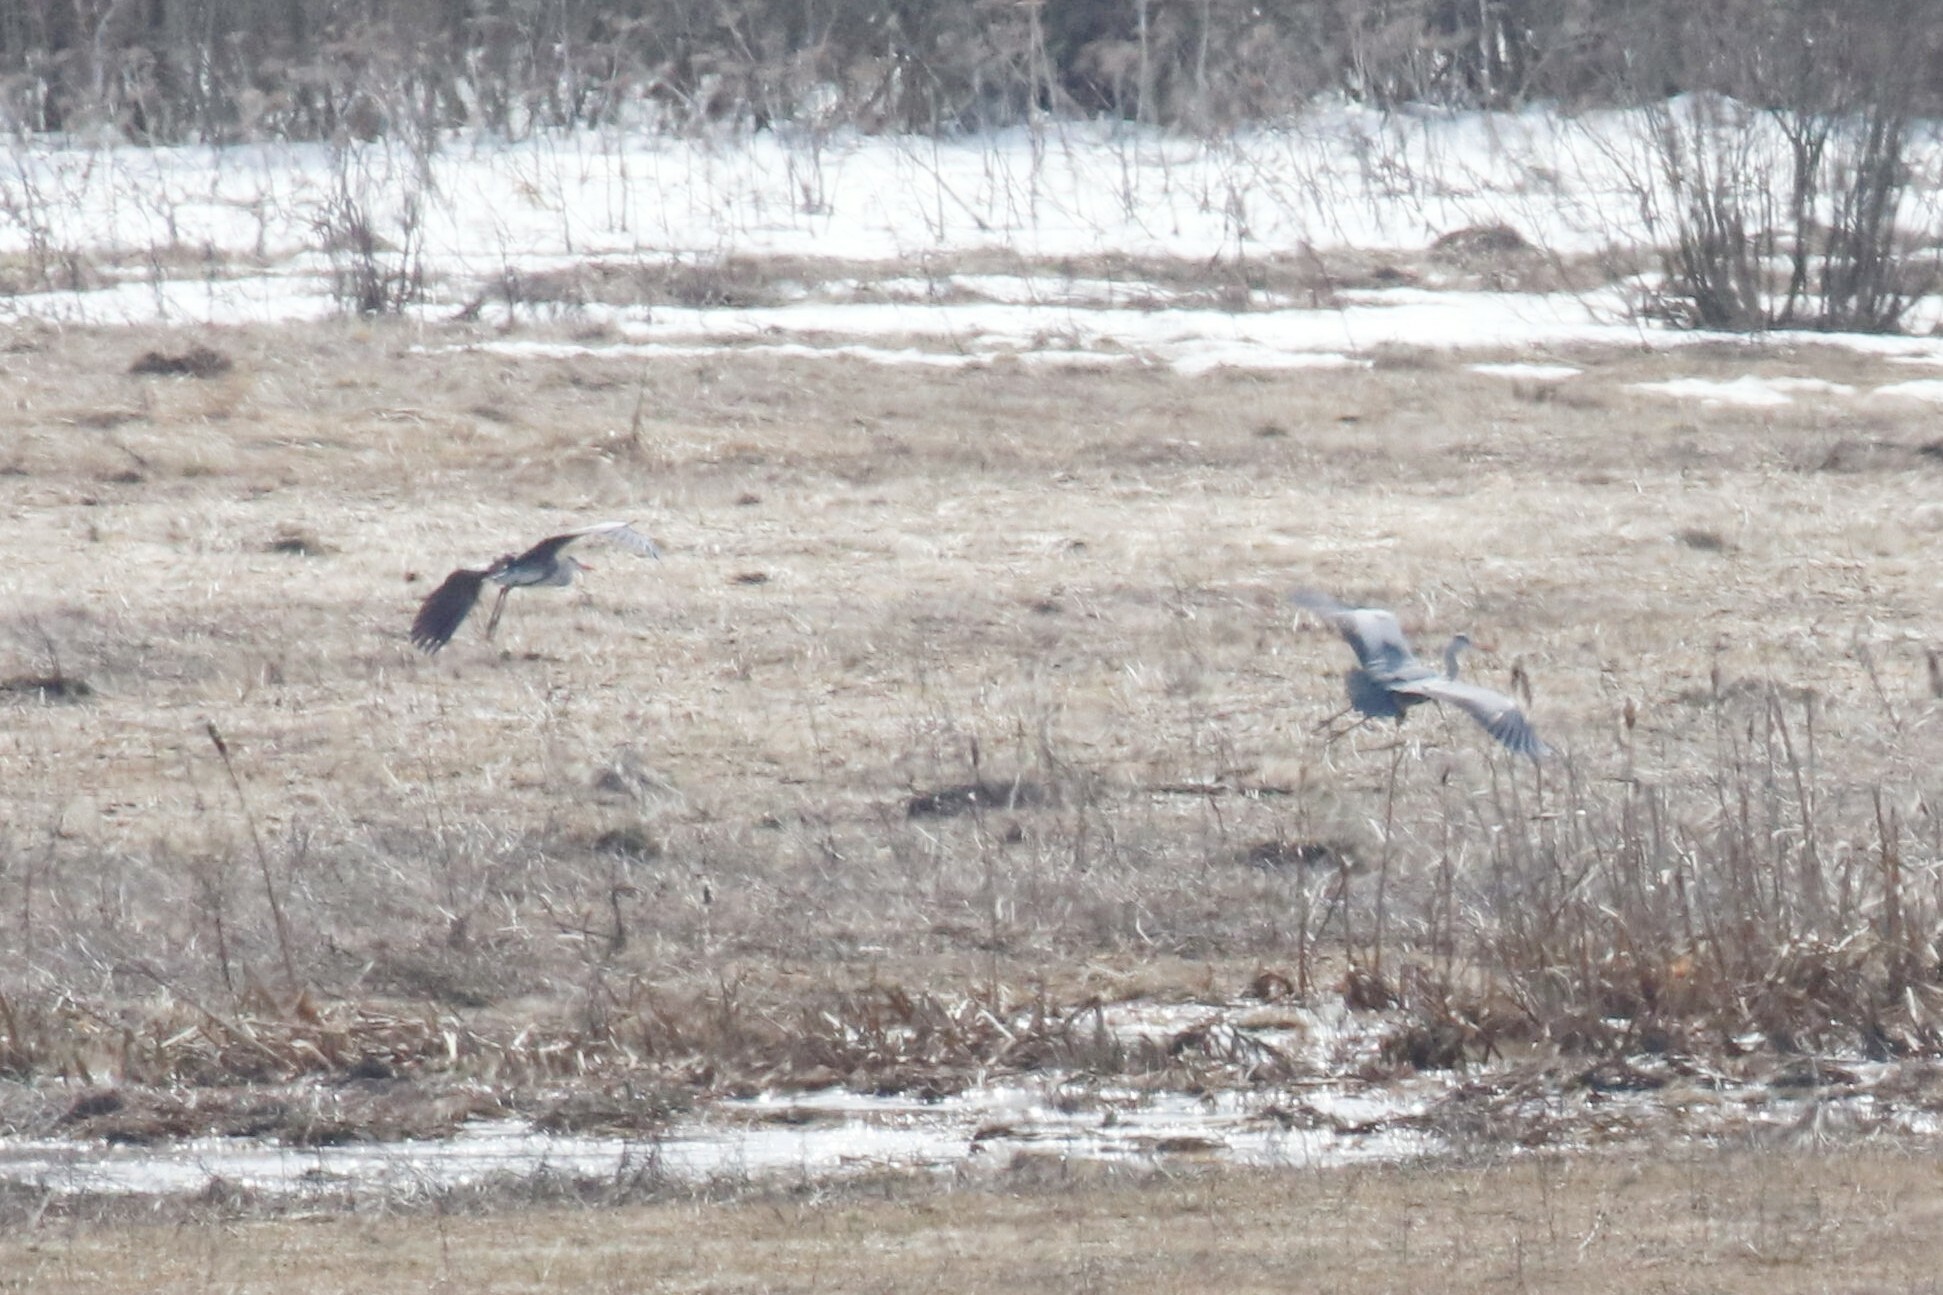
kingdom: Animalia
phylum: Chordata
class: Aves
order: Pelecaniformes
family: Ardeidae
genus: Ardea
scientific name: Ardea cinerea
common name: Grey heron
